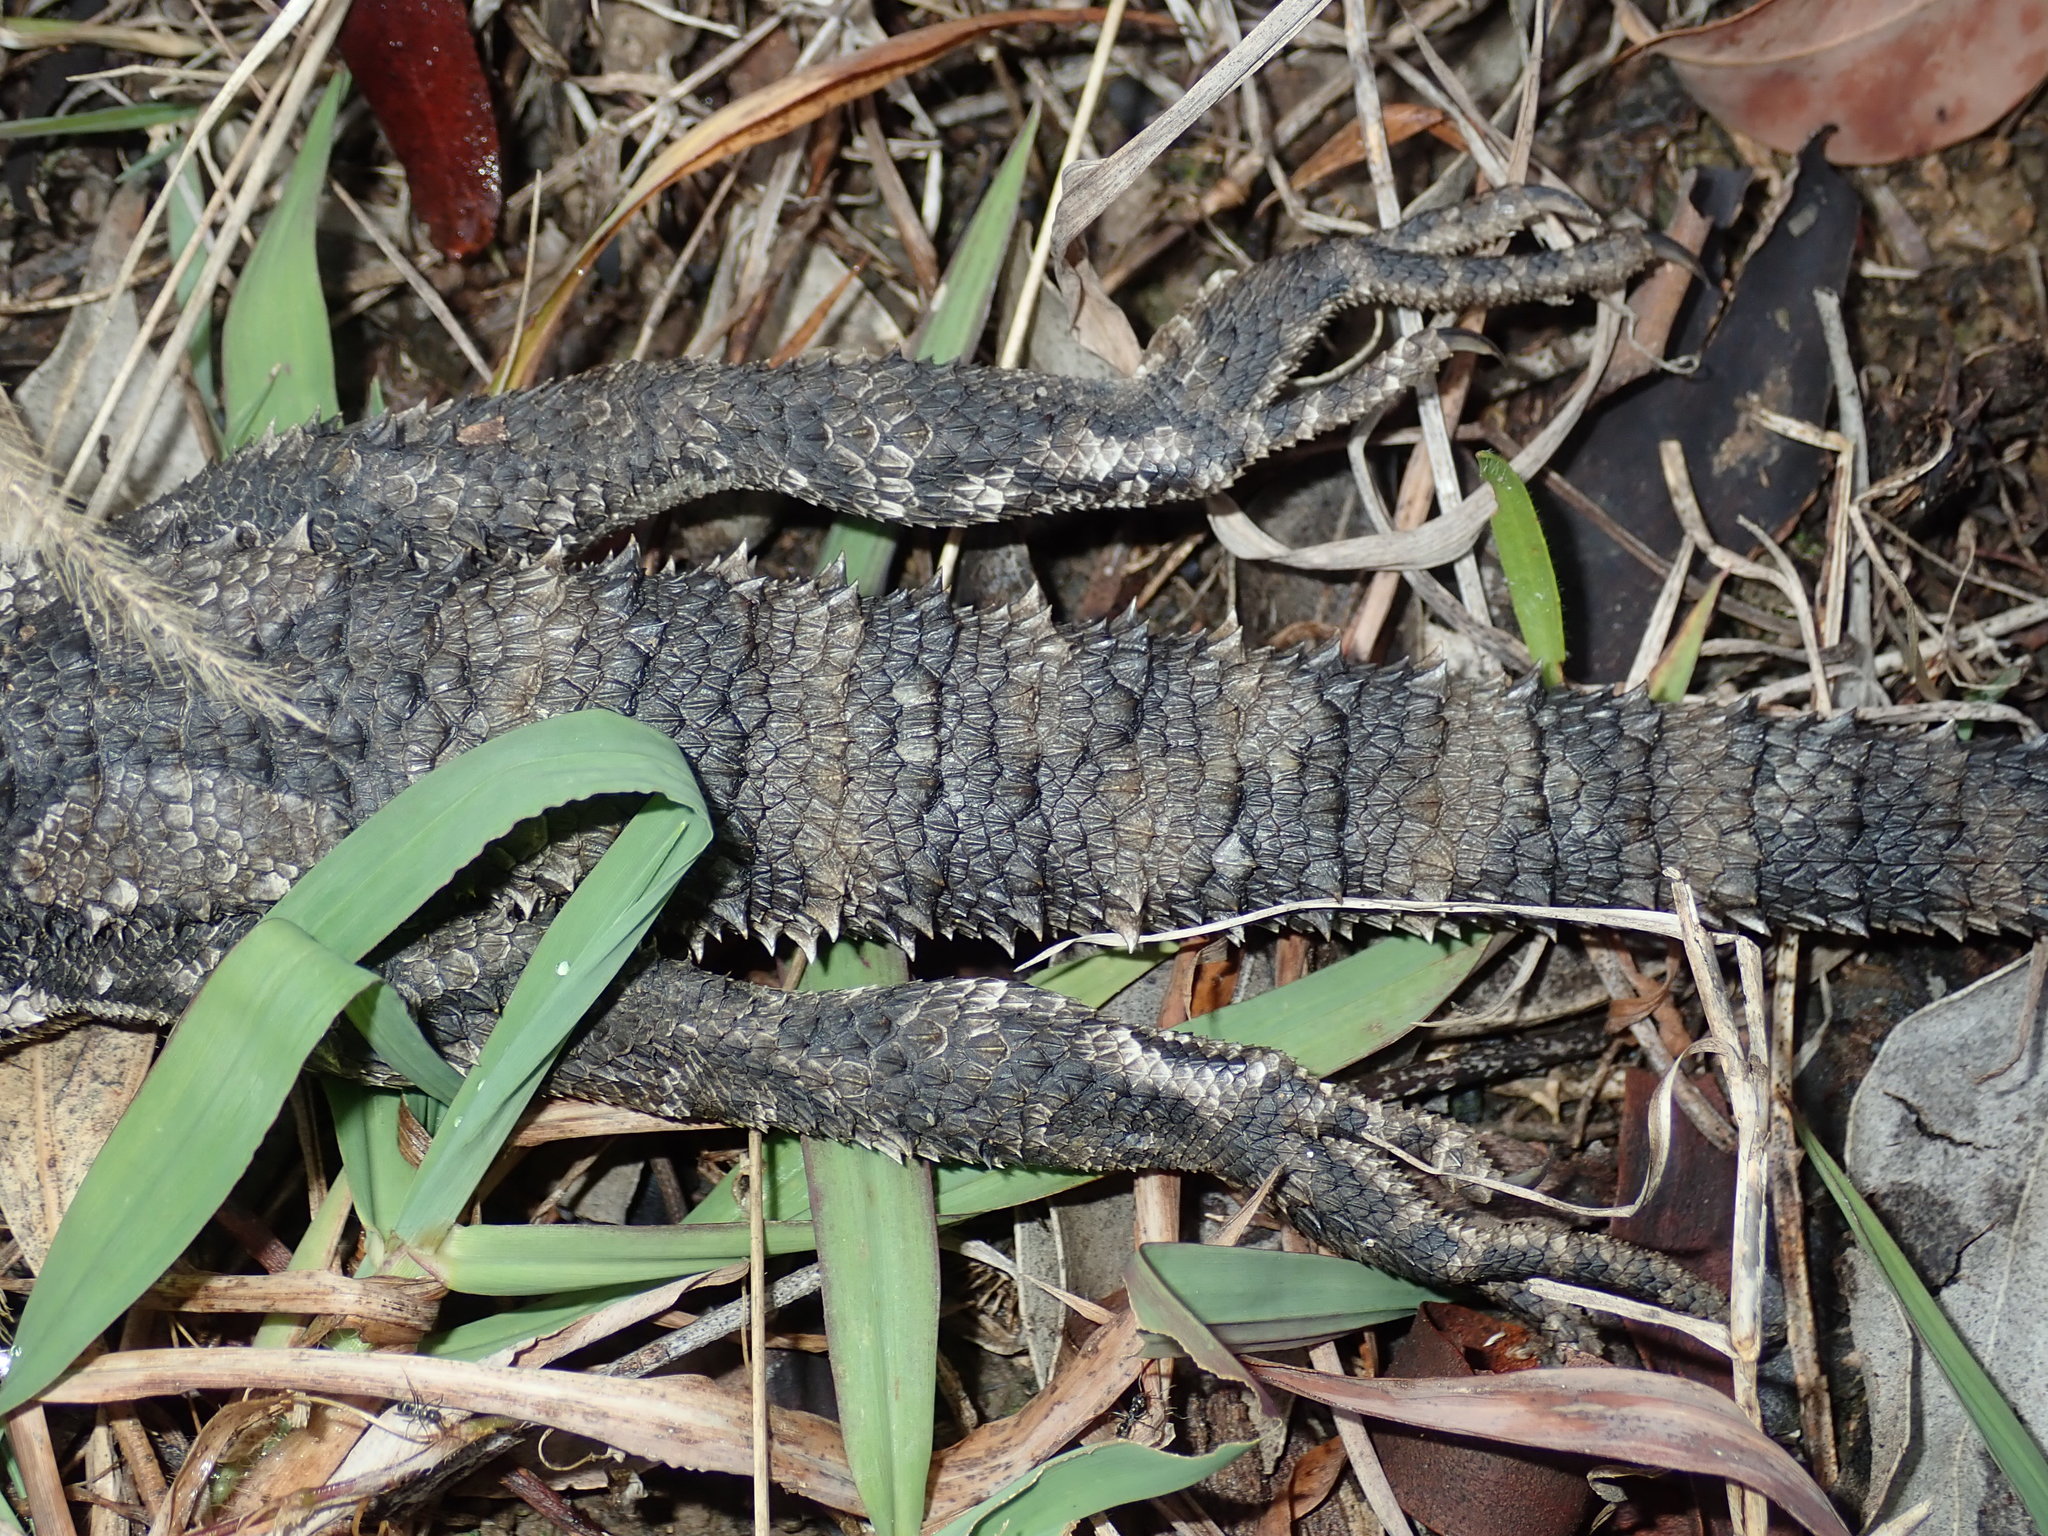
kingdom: Animalia
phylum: Chordata
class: Squamata
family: Agamidae
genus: Pogona
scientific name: Pogona barbata
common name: Bearded dragon
